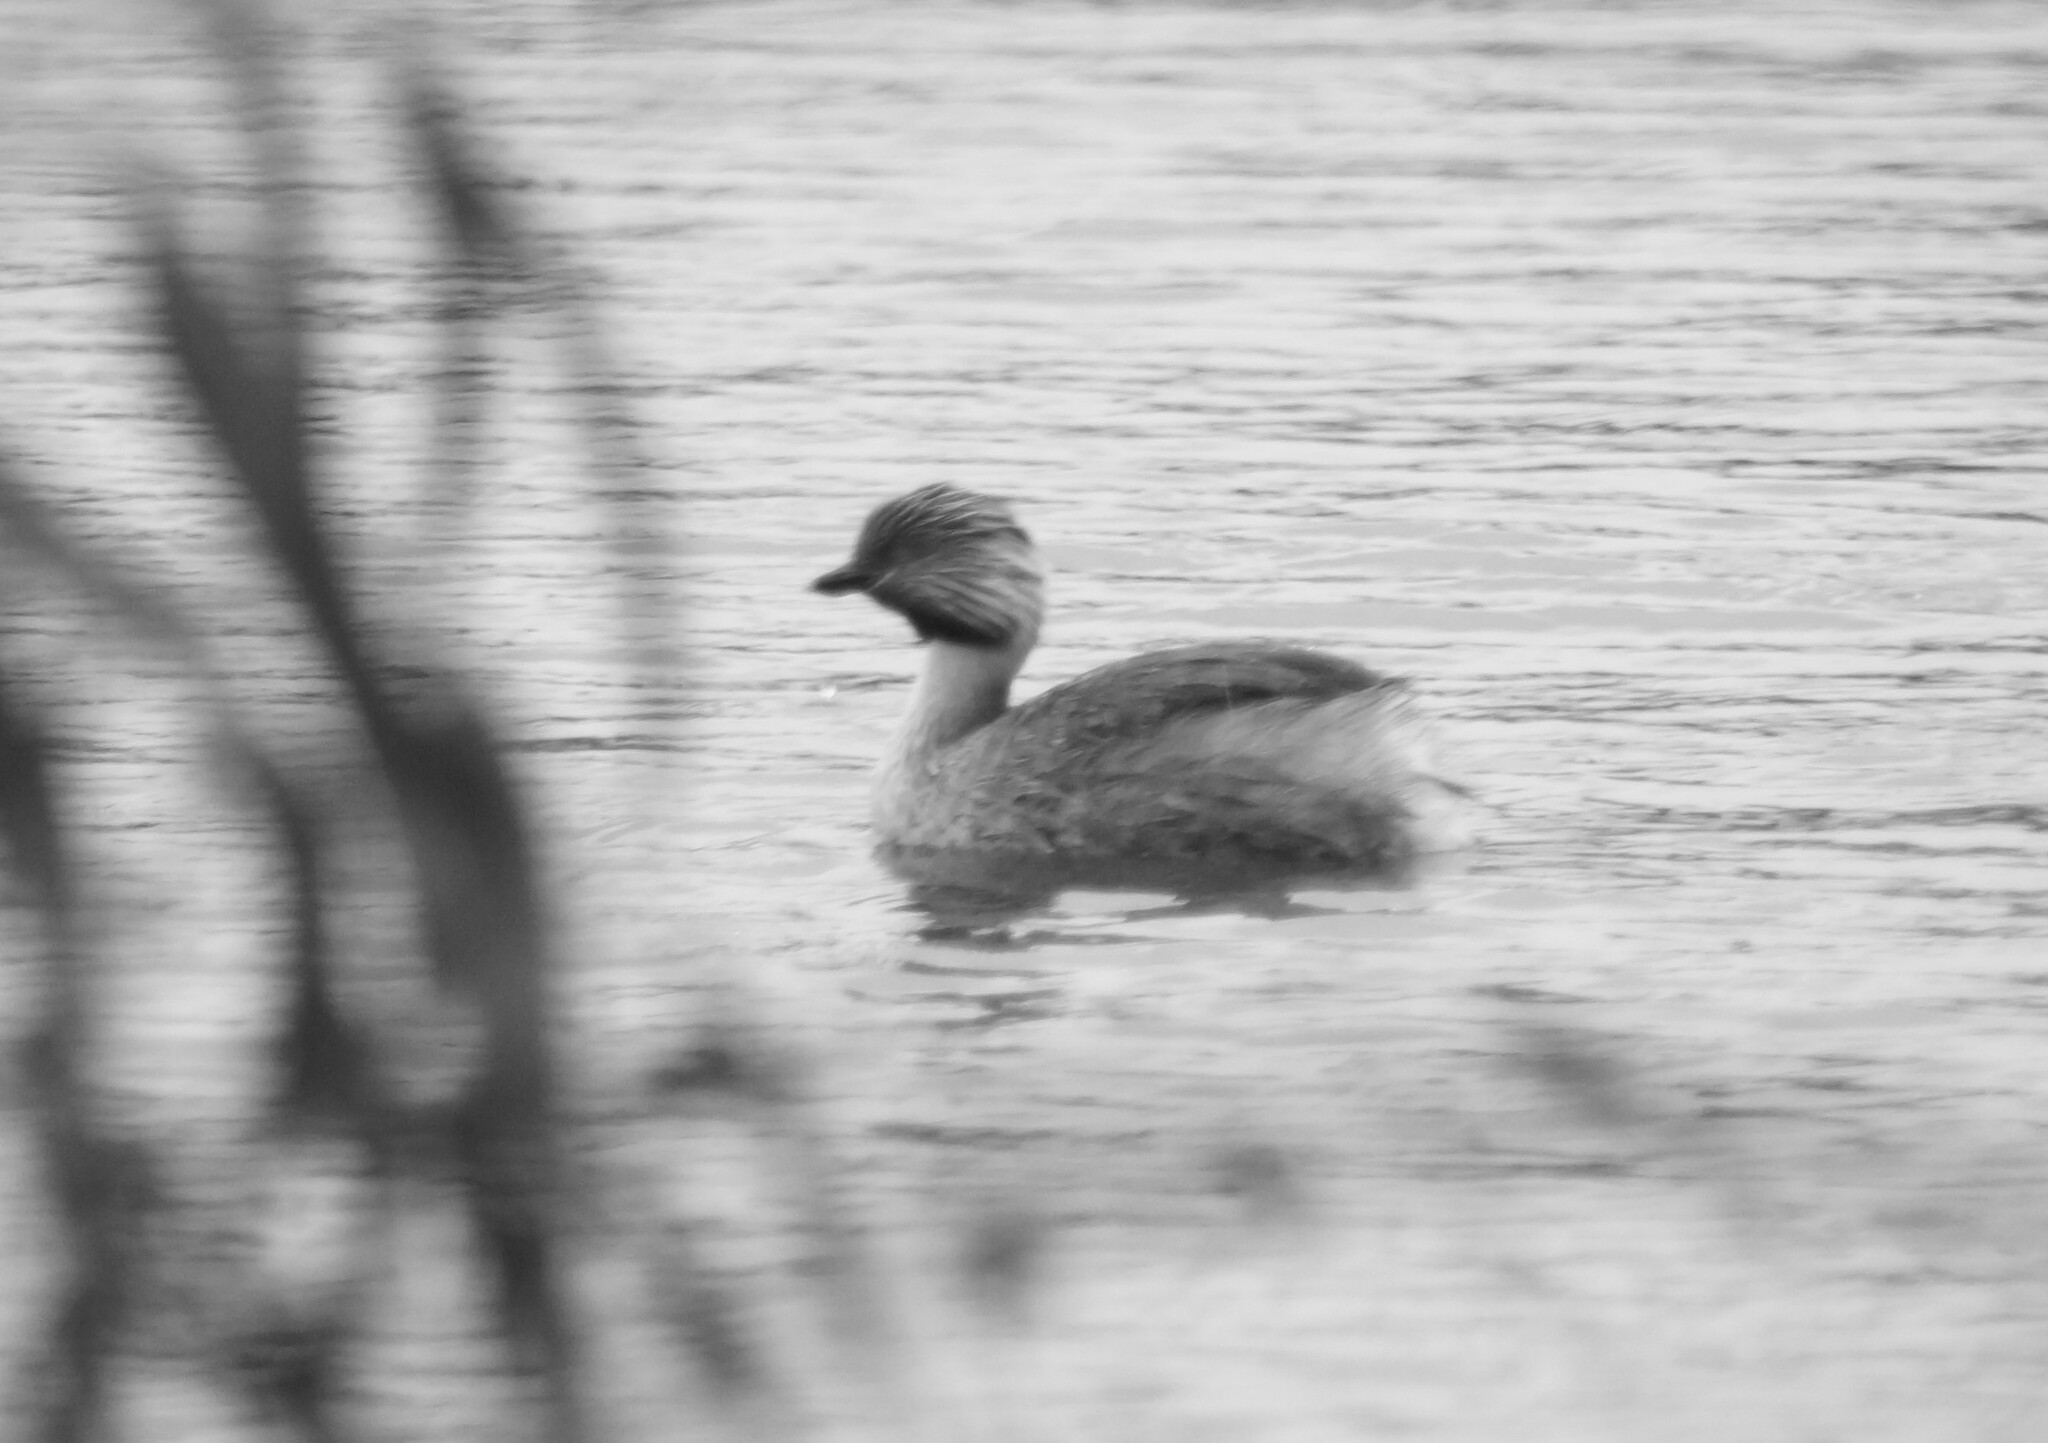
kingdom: Animalia
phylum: Chordata
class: Aves
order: Podicipediformes
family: Podicipedidae
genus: Poliocephalus
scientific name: Poliocephalus poliocephalus
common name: Hoary-headed grebe
